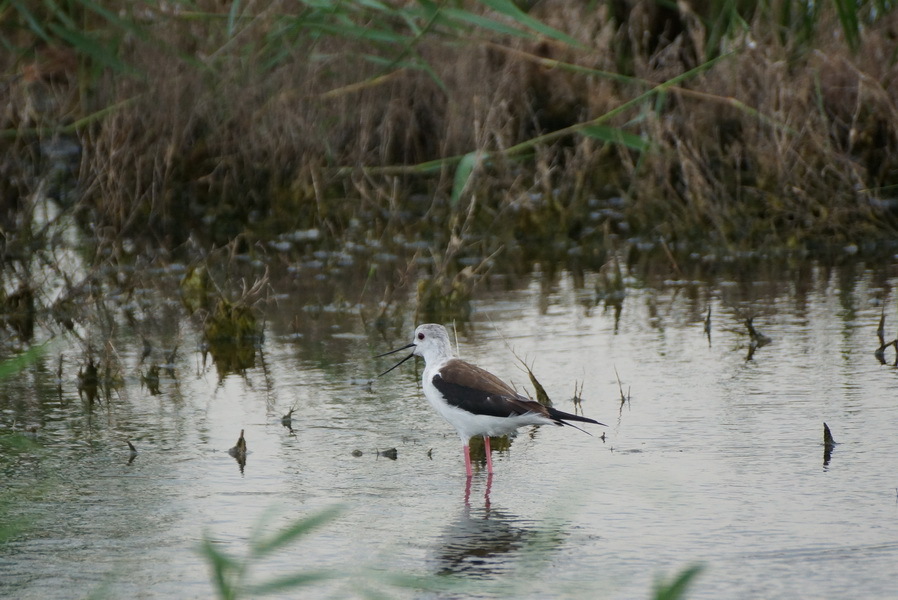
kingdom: Animalia
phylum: Chordata
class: Aves
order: Charadriiformes
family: Recurvirostridae
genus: Himantopus
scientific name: Himantopus himantopus
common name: Black-winged stilt
